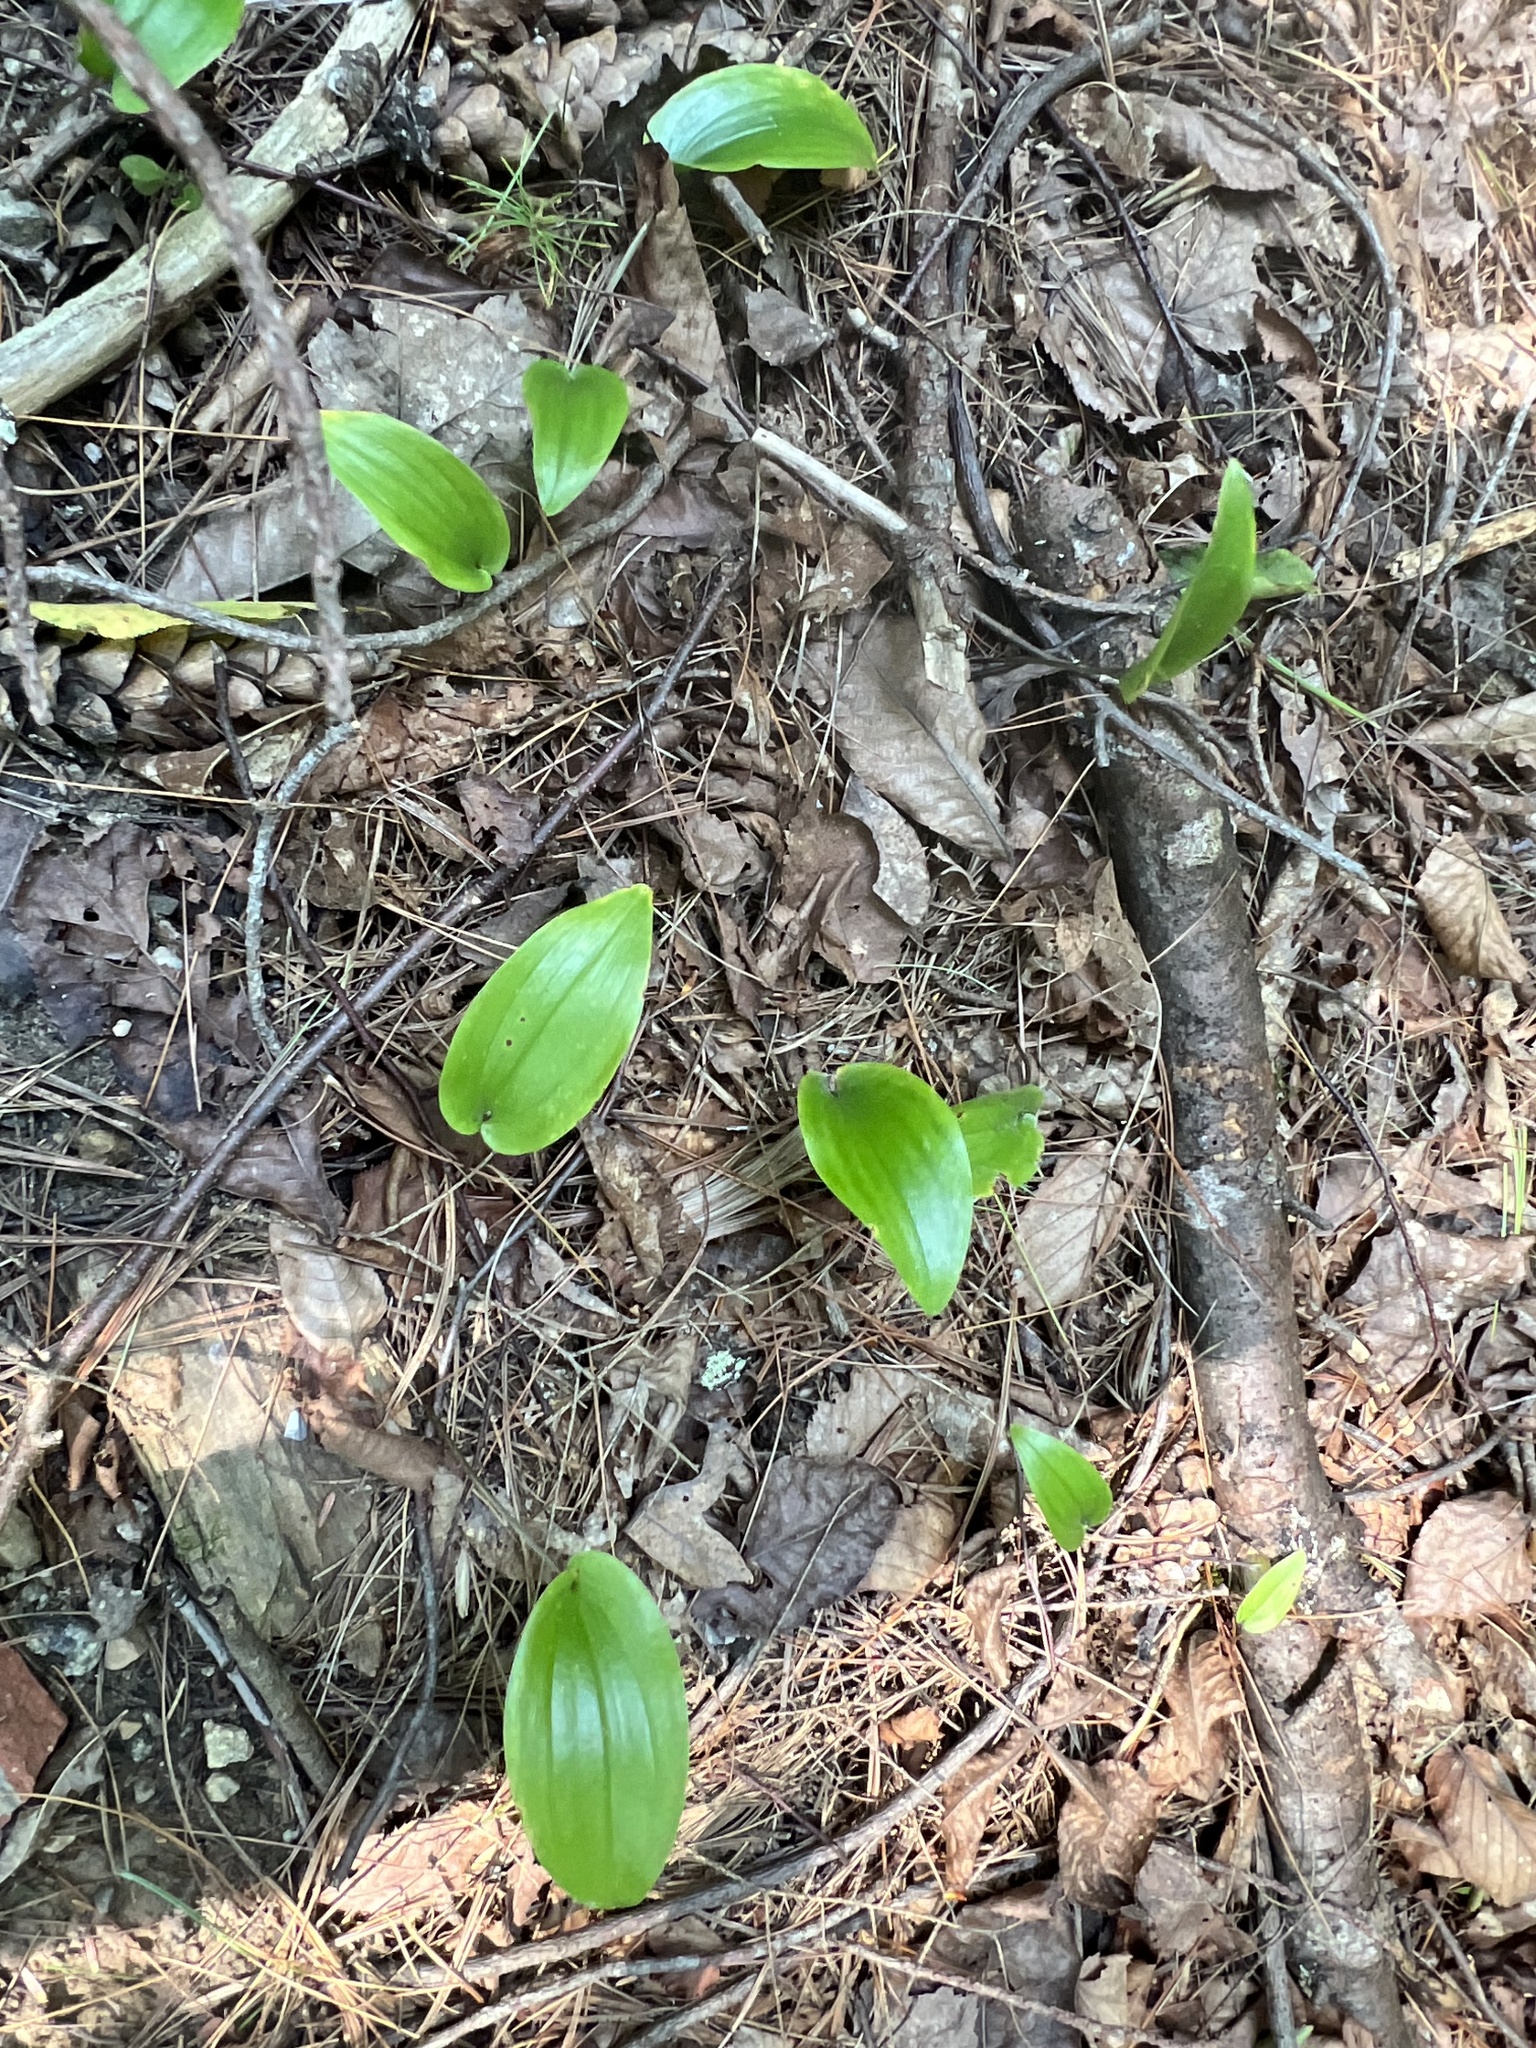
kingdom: Plantae
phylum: Tracheophyta
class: Liliopsida
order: Asparagales
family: Asparagaceae
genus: Maianthemum
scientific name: Maianthemum canadense
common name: False lily-of-the-valley
